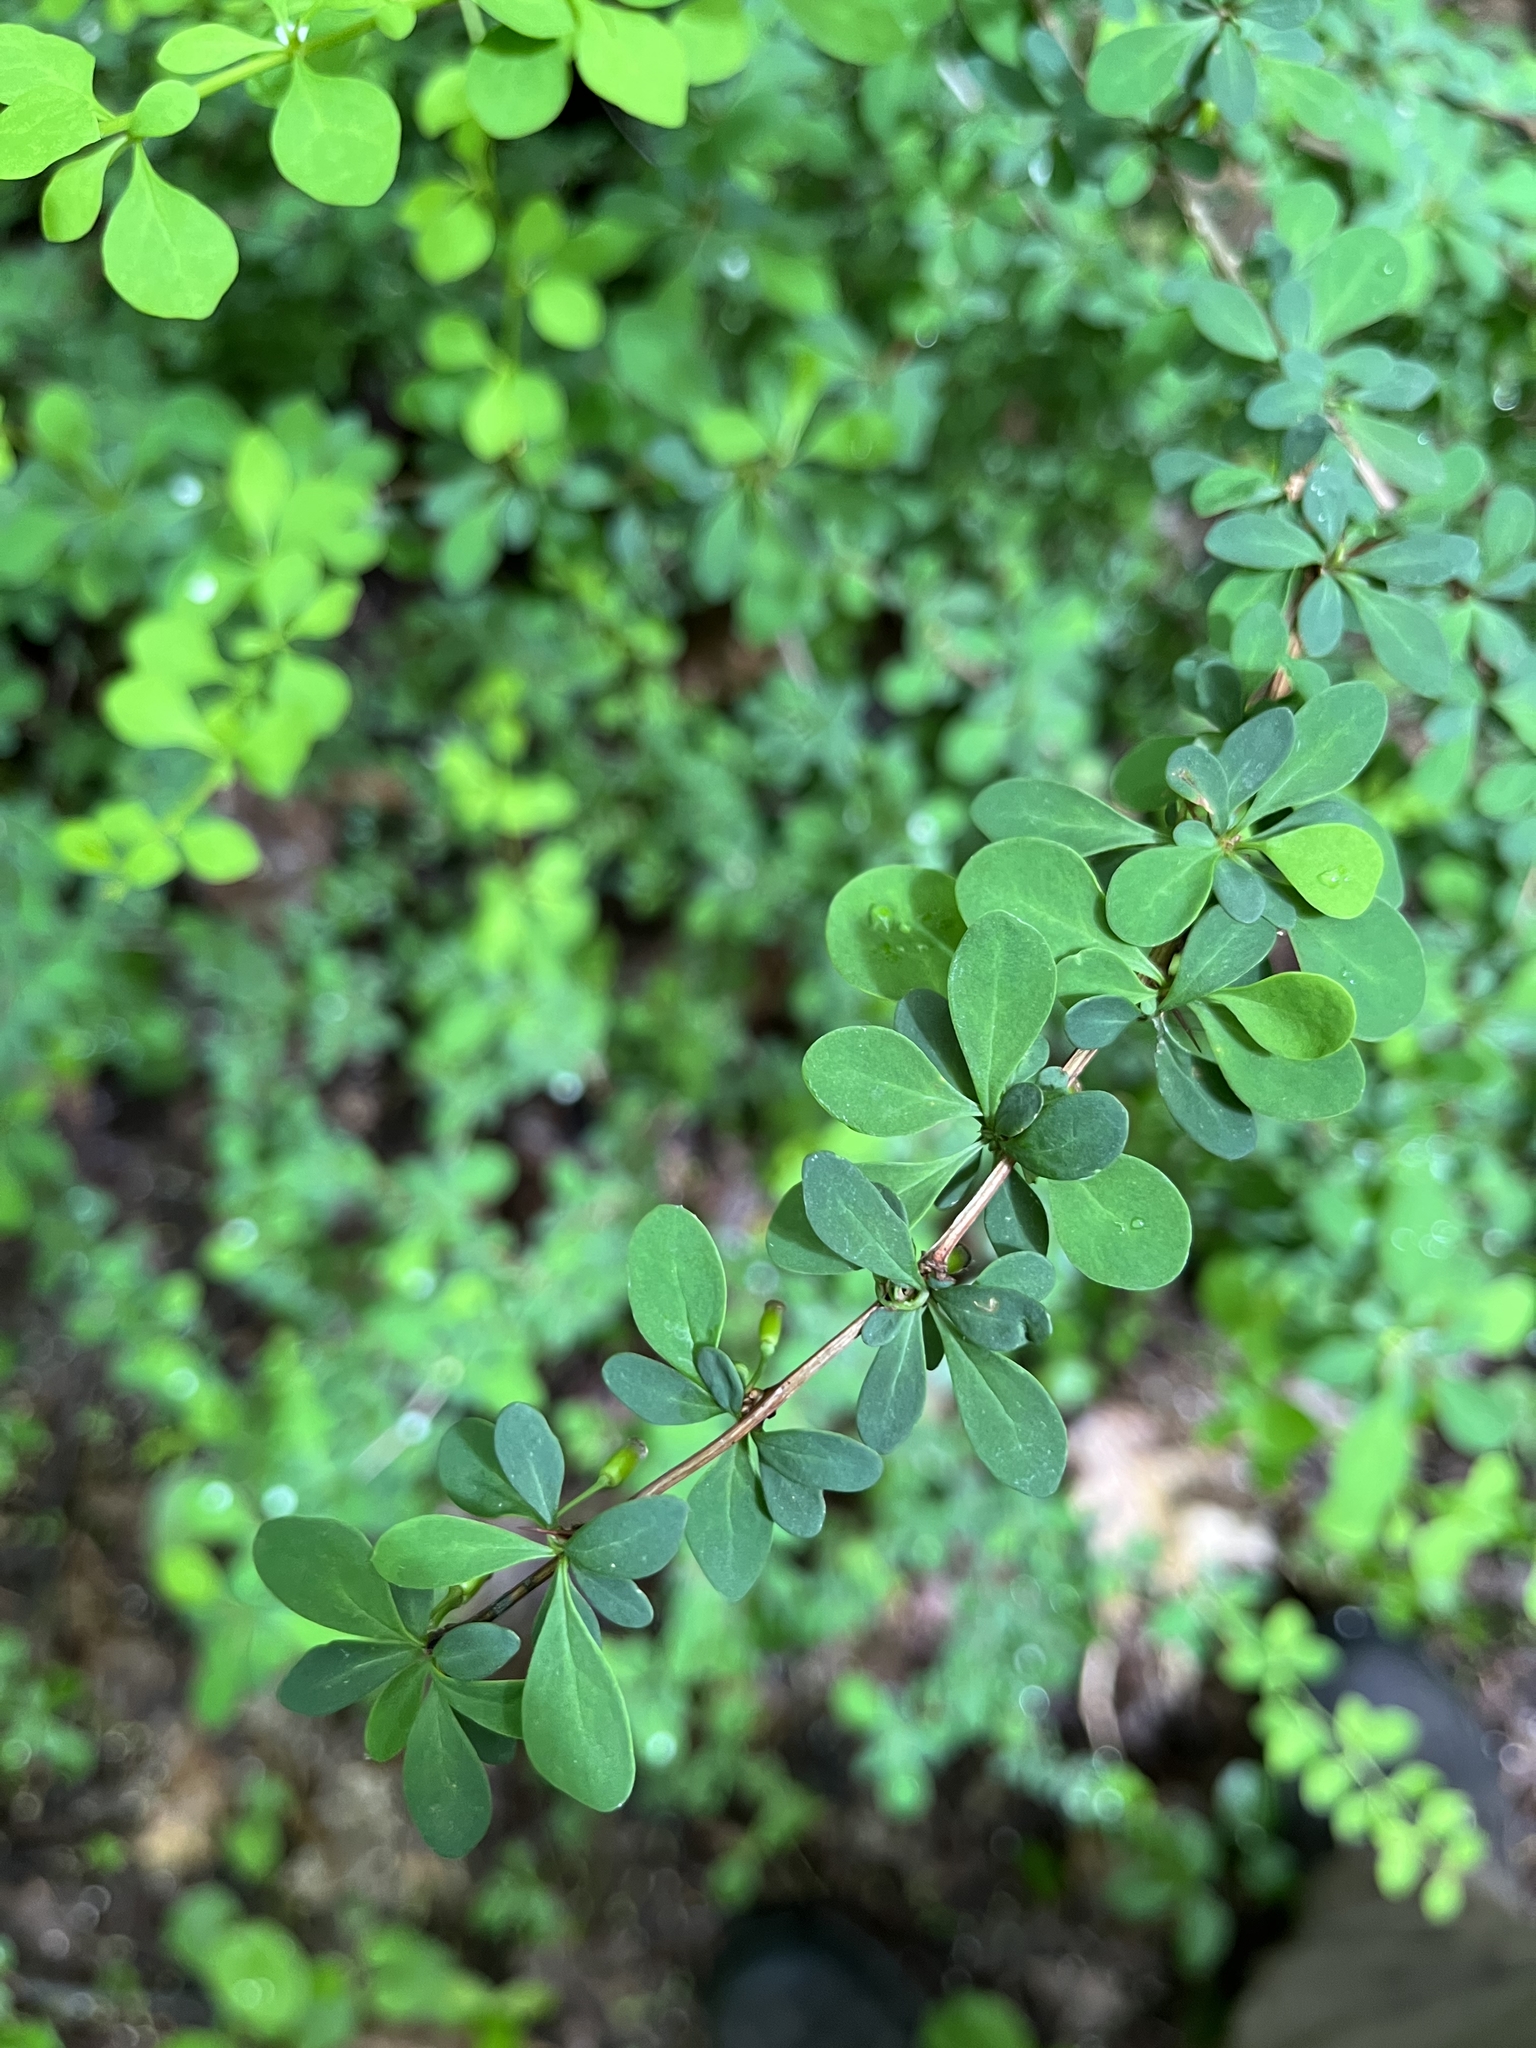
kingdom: Plantae
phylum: Tracheophyta
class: Magnoliopsida
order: Ranunculales
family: Berberidaceae
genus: Berberis
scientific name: Berberis thunbergii
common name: Japanese barberry
